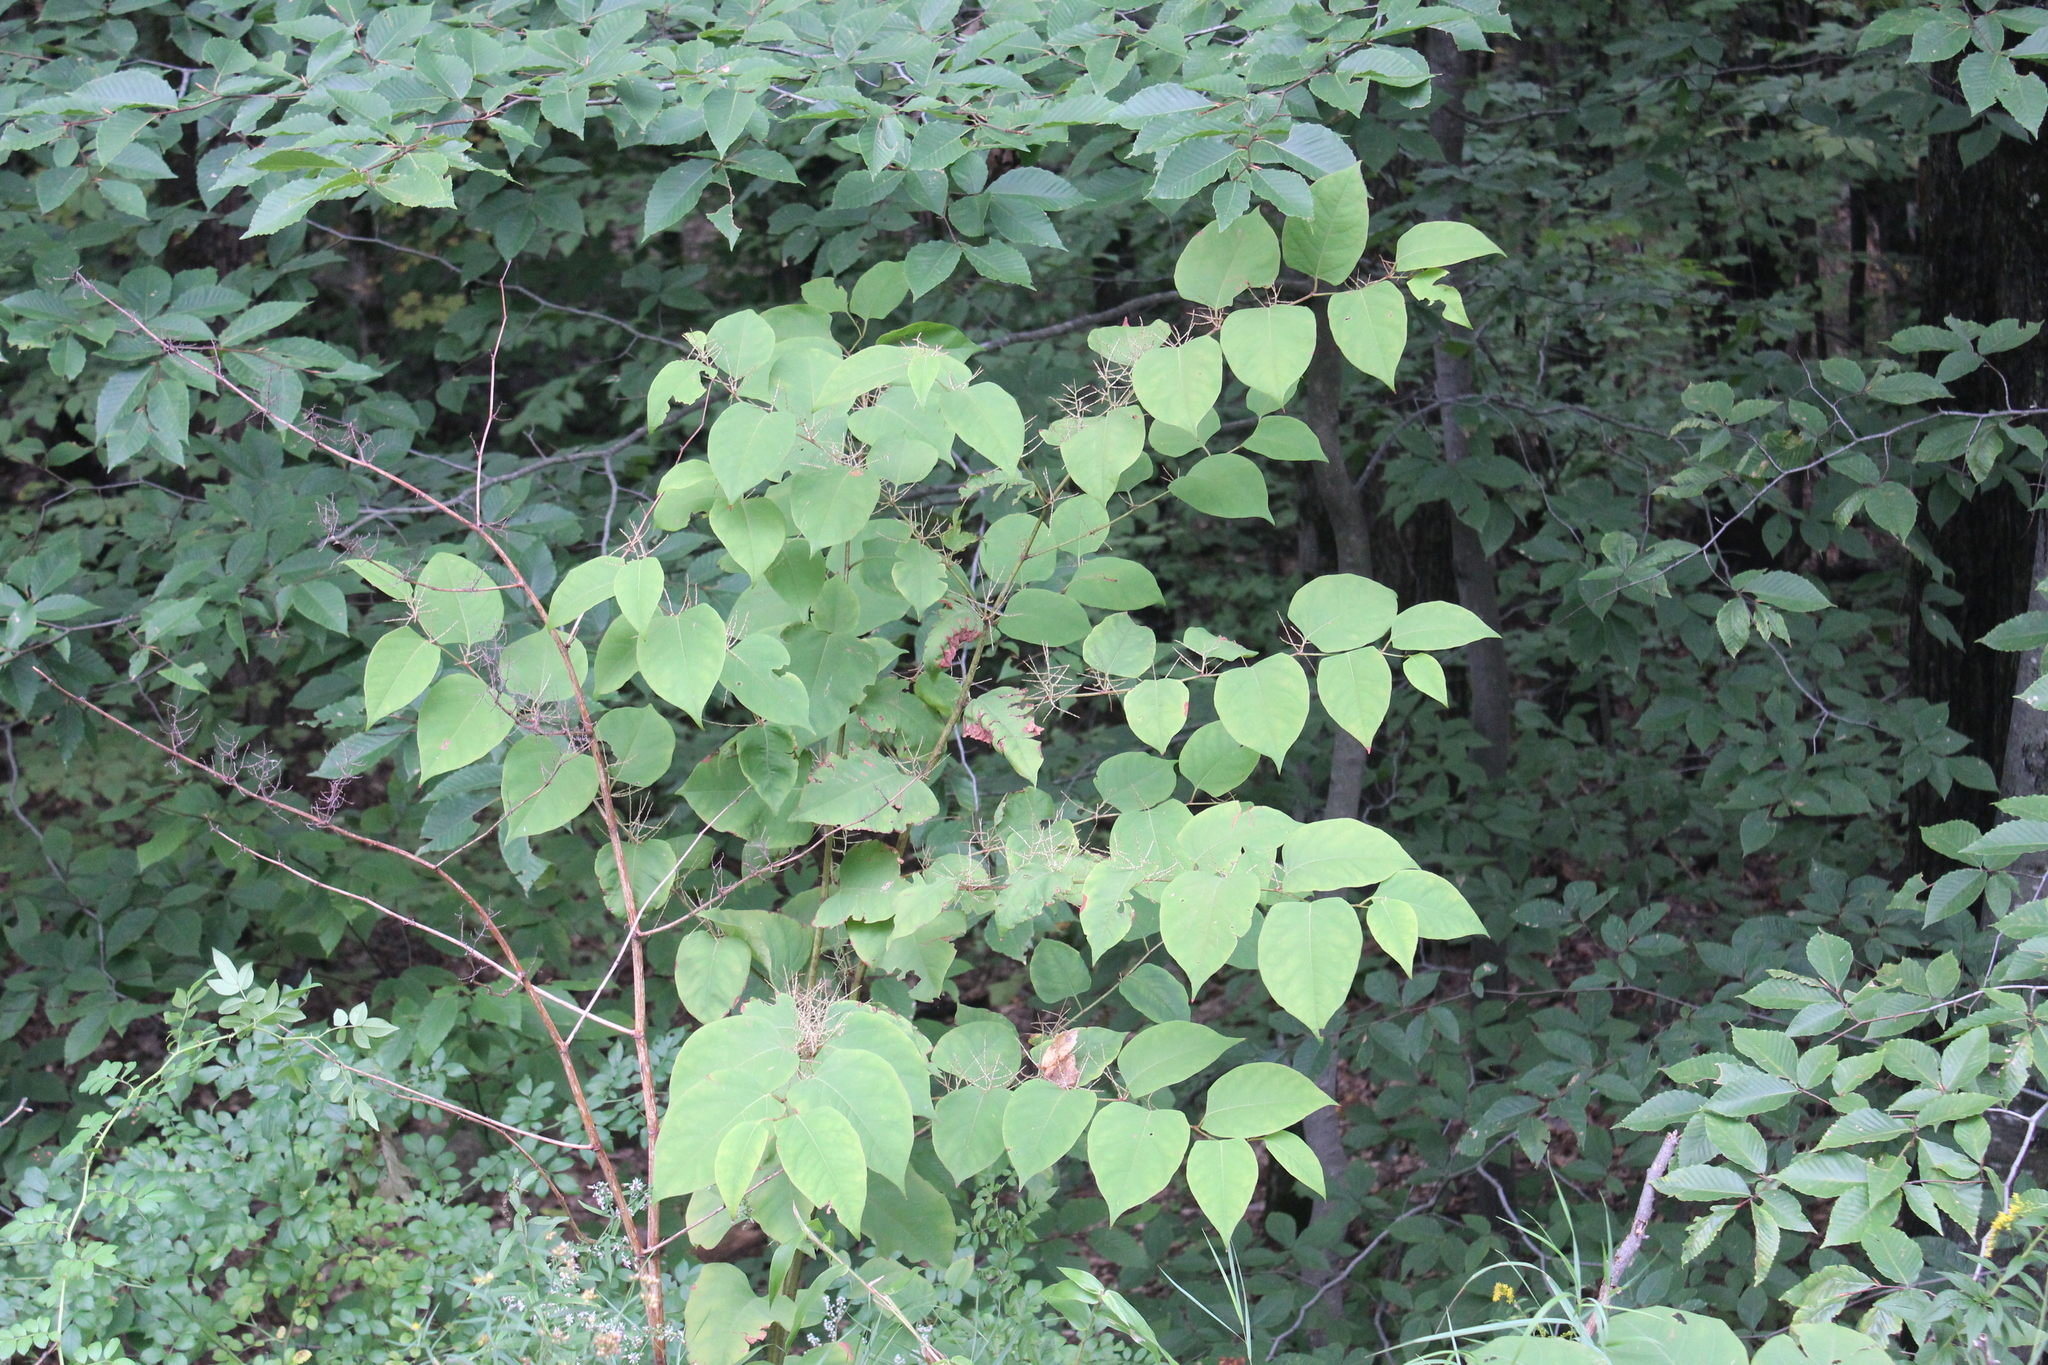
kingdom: Plantae
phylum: Tracheophyta
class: Magnoliopsida
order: Caryophyllales
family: Polygonaceae
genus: Reynoutria
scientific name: Reynoutria japonica
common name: Japanese knotweed
